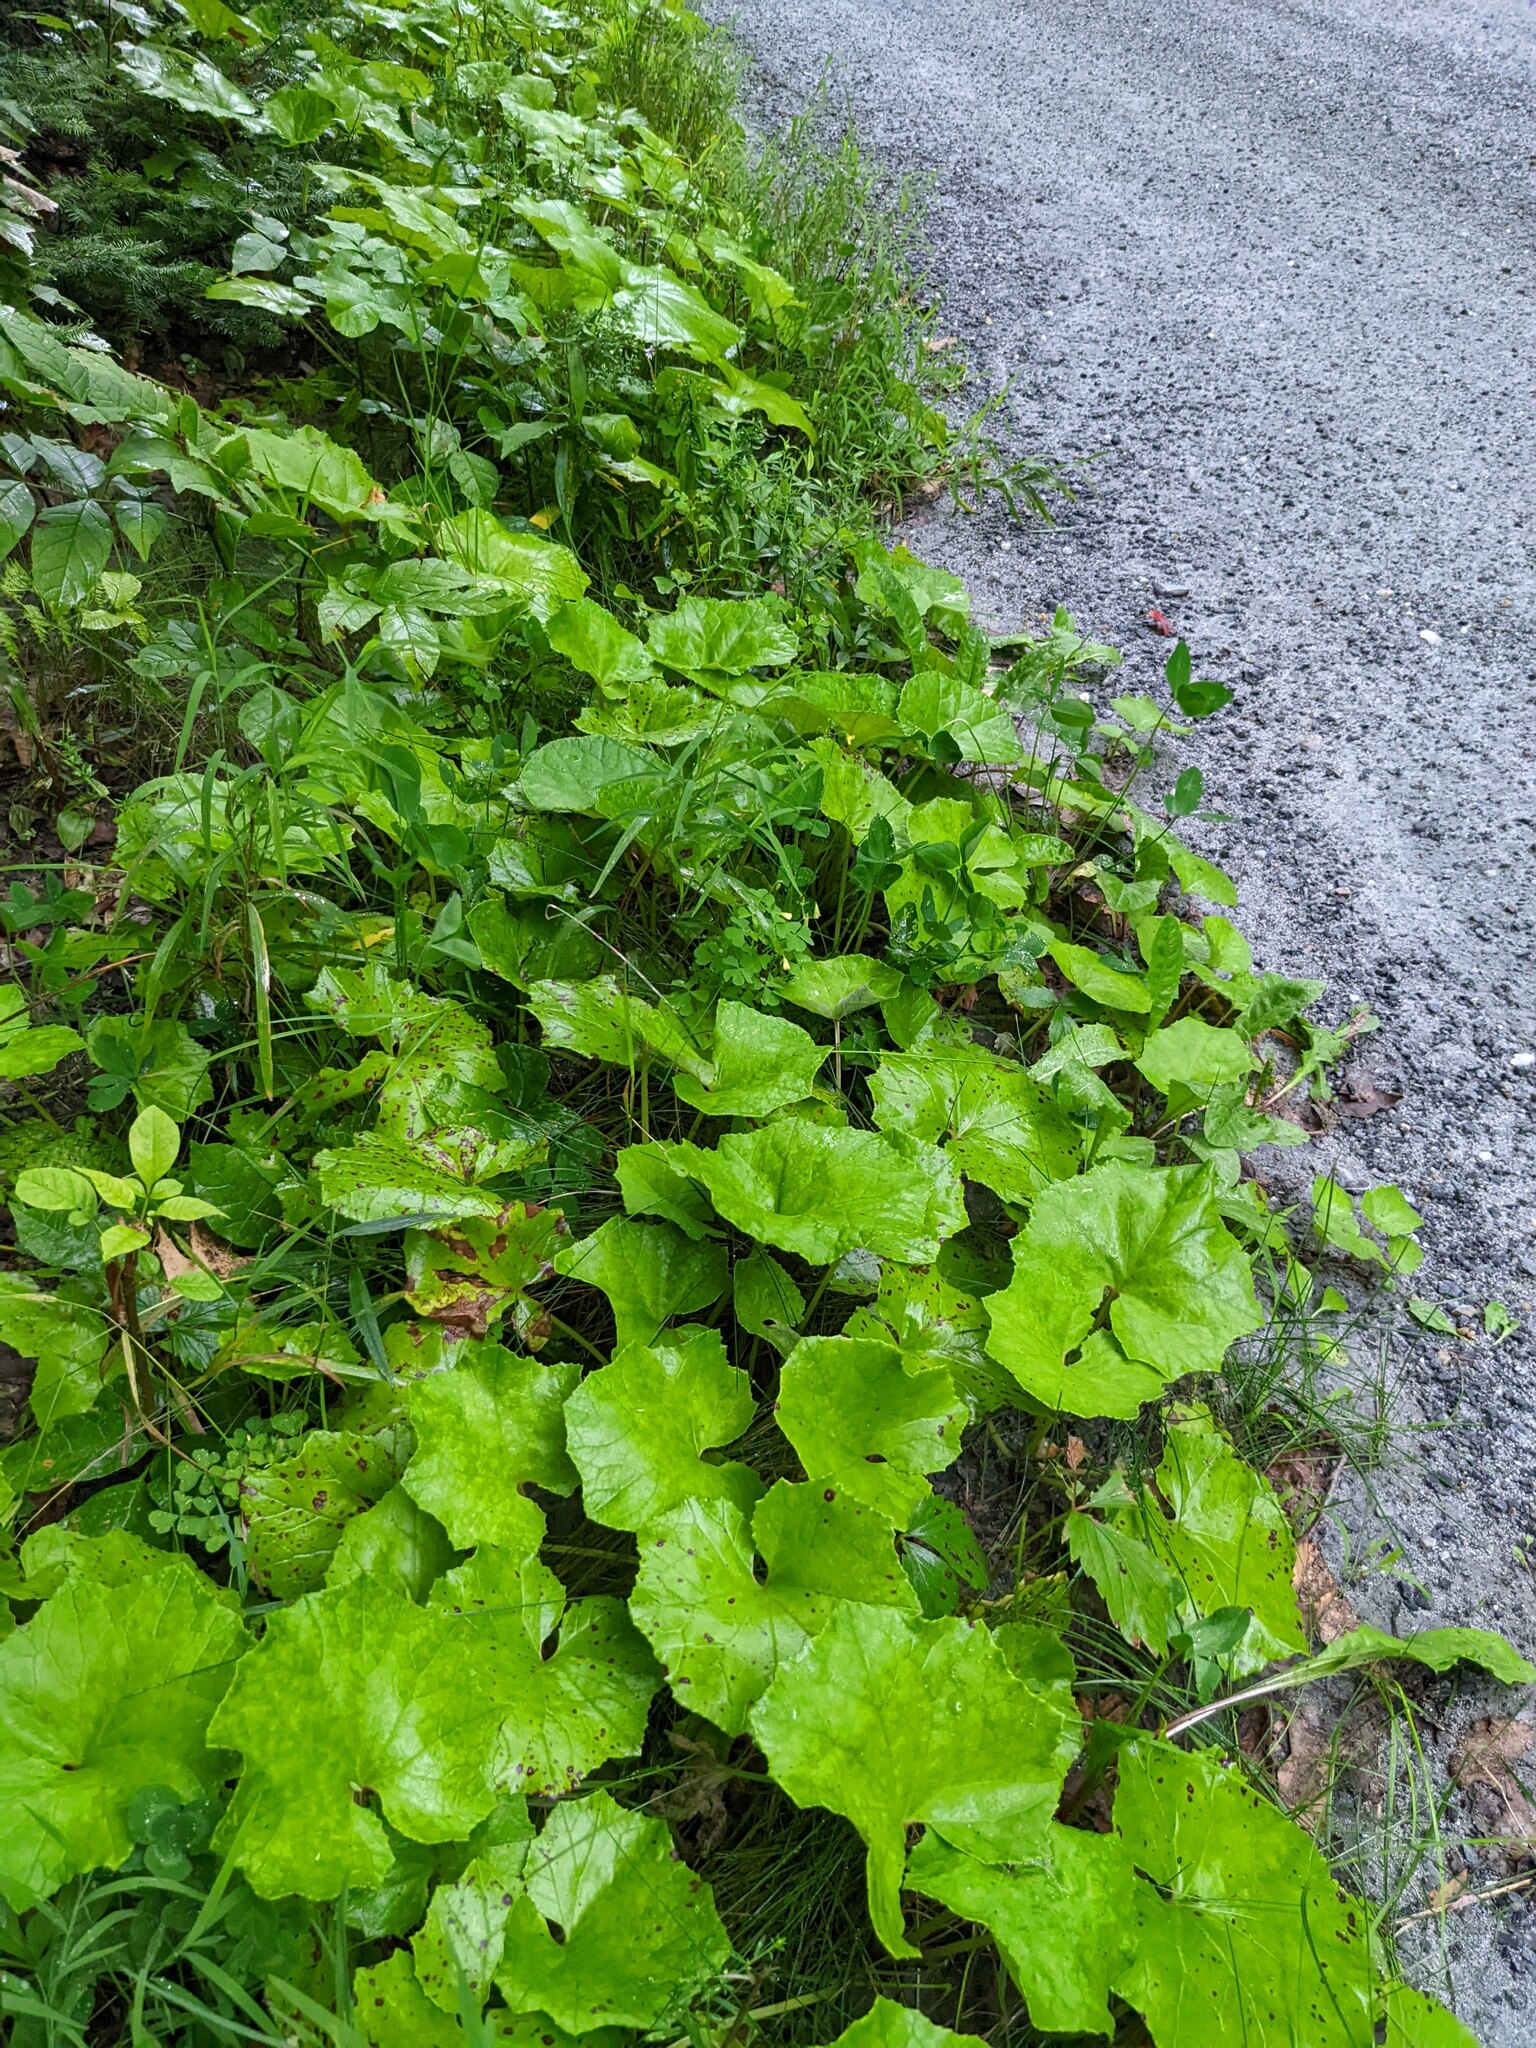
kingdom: Plantae
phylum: Tracheophyta
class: Magnoliopsida
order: Asterales
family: Asteraceae
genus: Tussilago
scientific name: Tussilago farfara
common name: Coltsfoot
